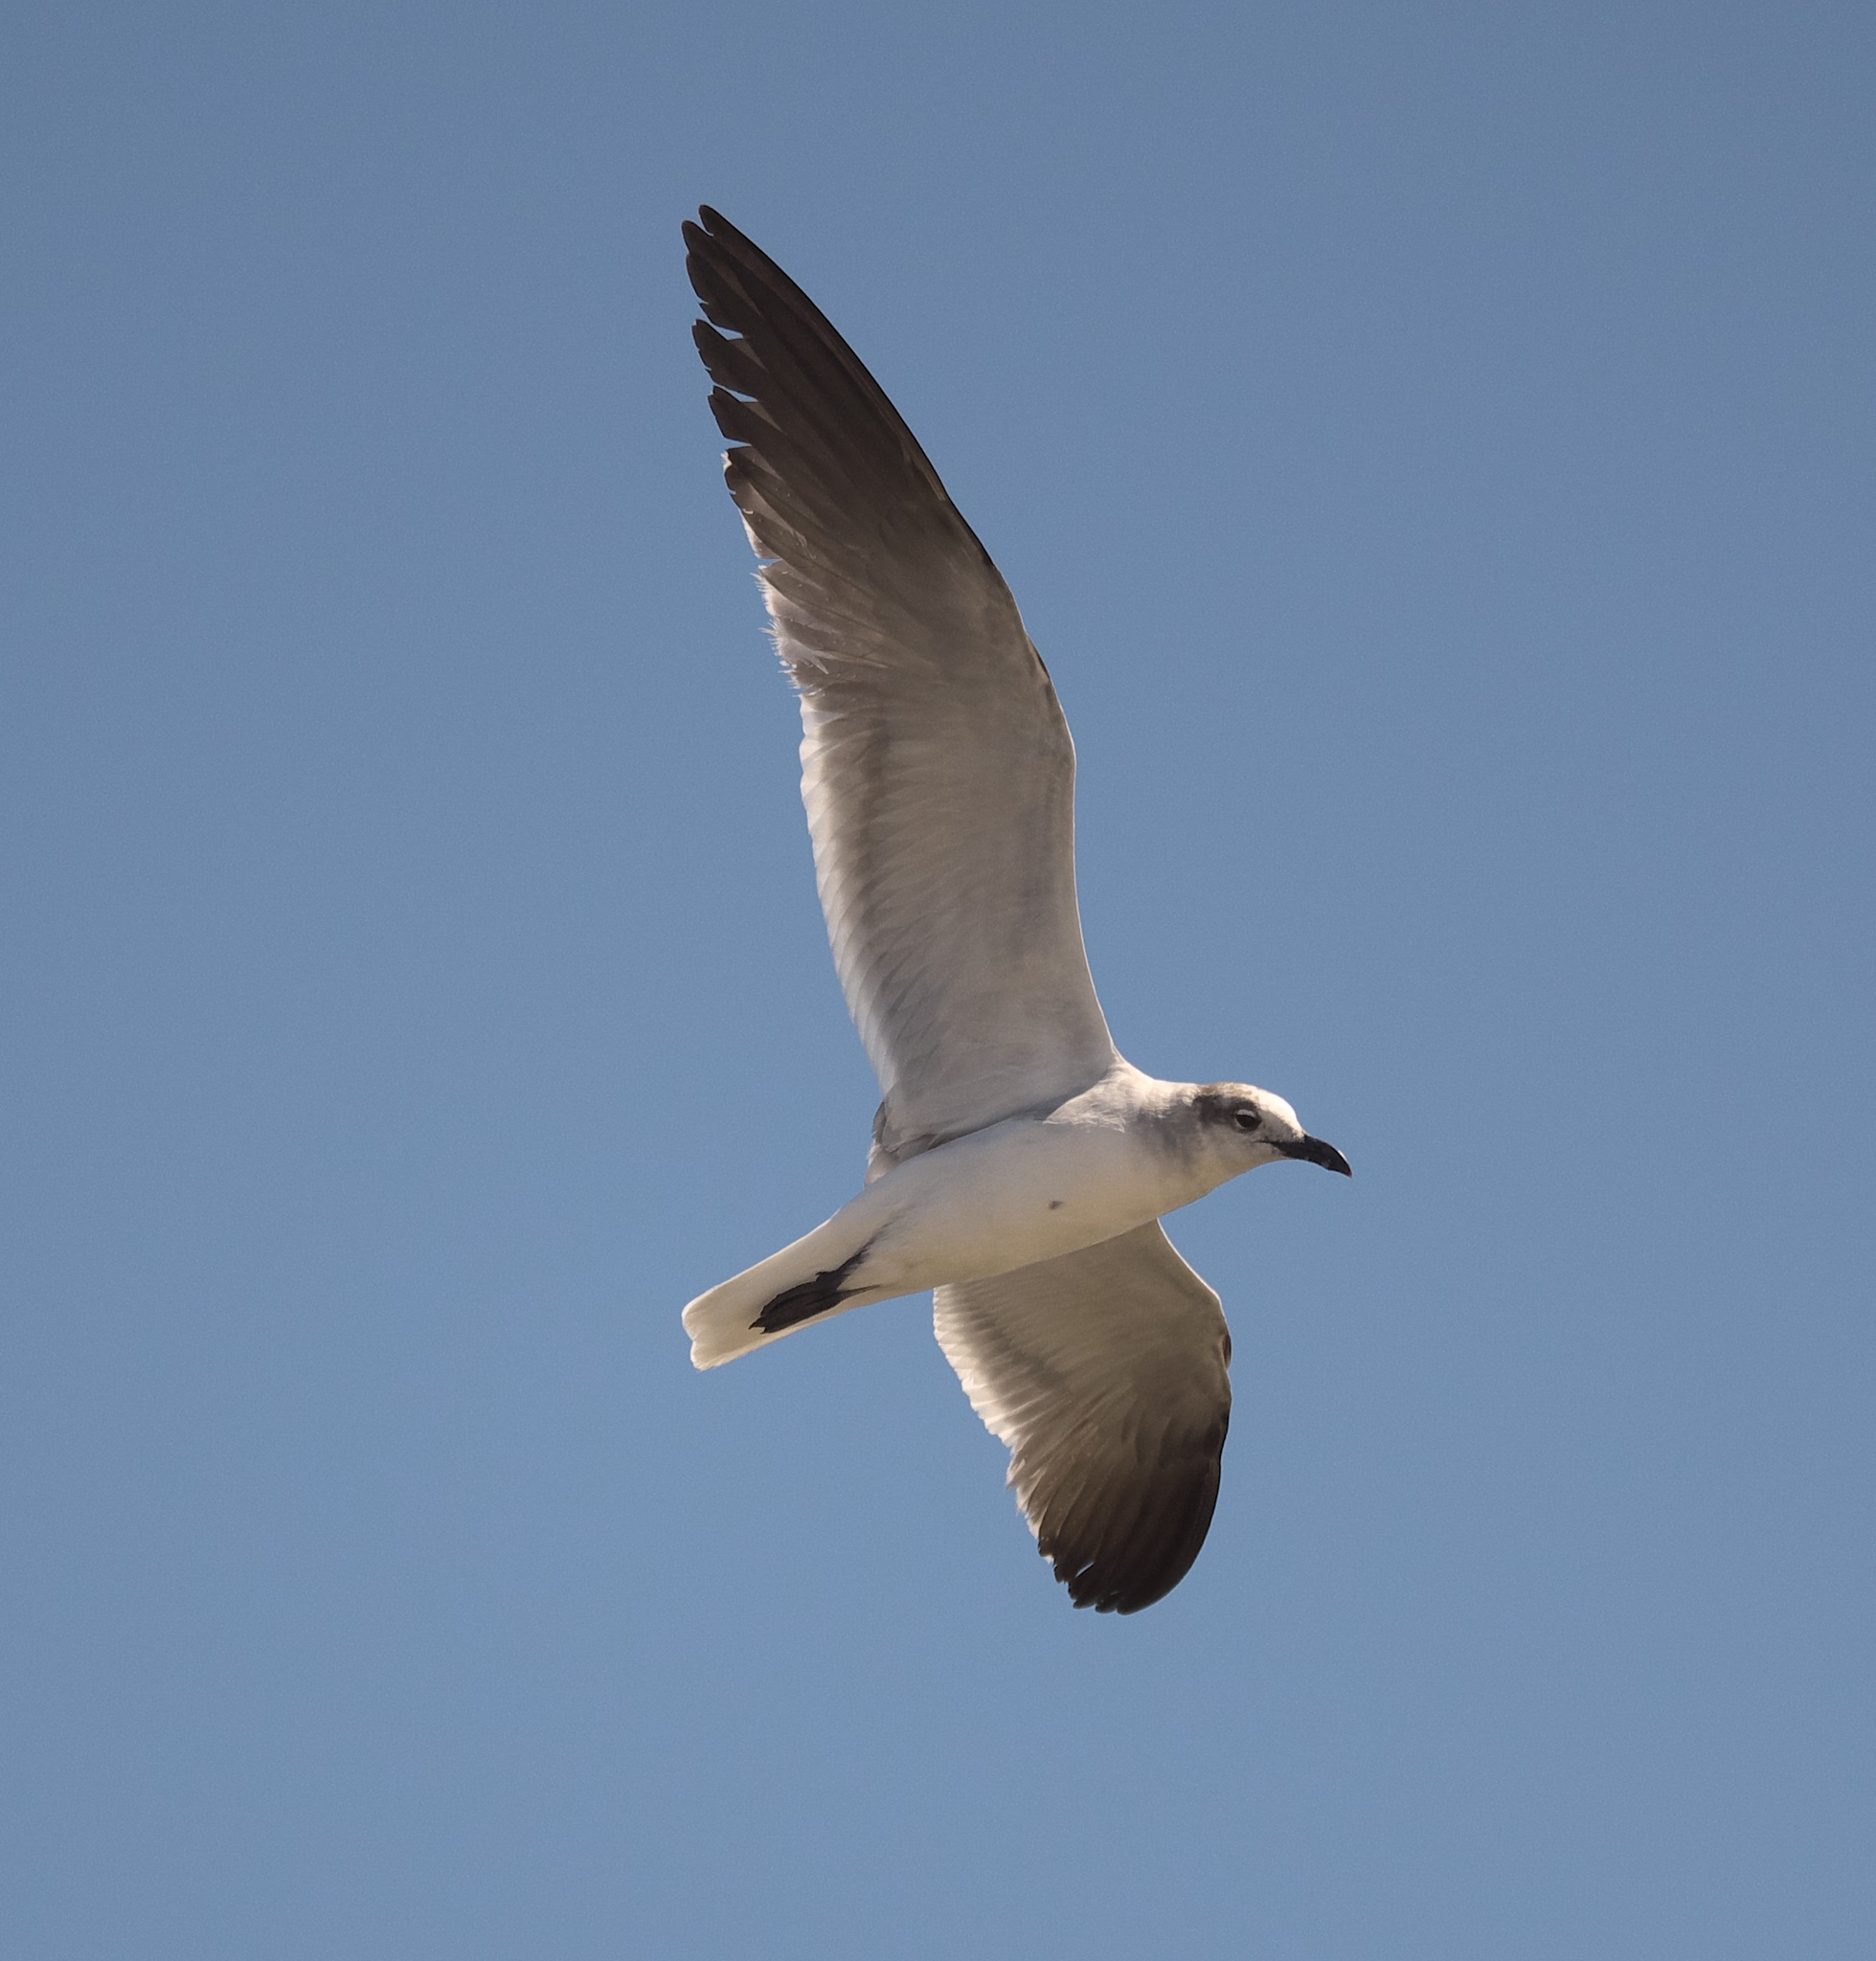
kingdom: Animalia
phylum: Chordata
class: Aves
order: Charadriiformes
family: Laridae
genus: Leucophaeus
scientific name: Leucophaeus atricilla
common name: Laughing gull
